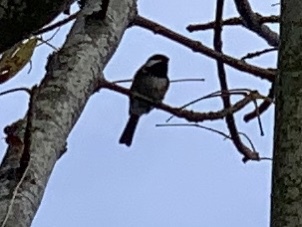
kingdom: Animalia
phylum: Chordata
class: Aves
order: Passeriformes
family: Paridae
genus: Poecile
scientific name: Poecile rufescens
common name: Chestnut-backed chickadee
